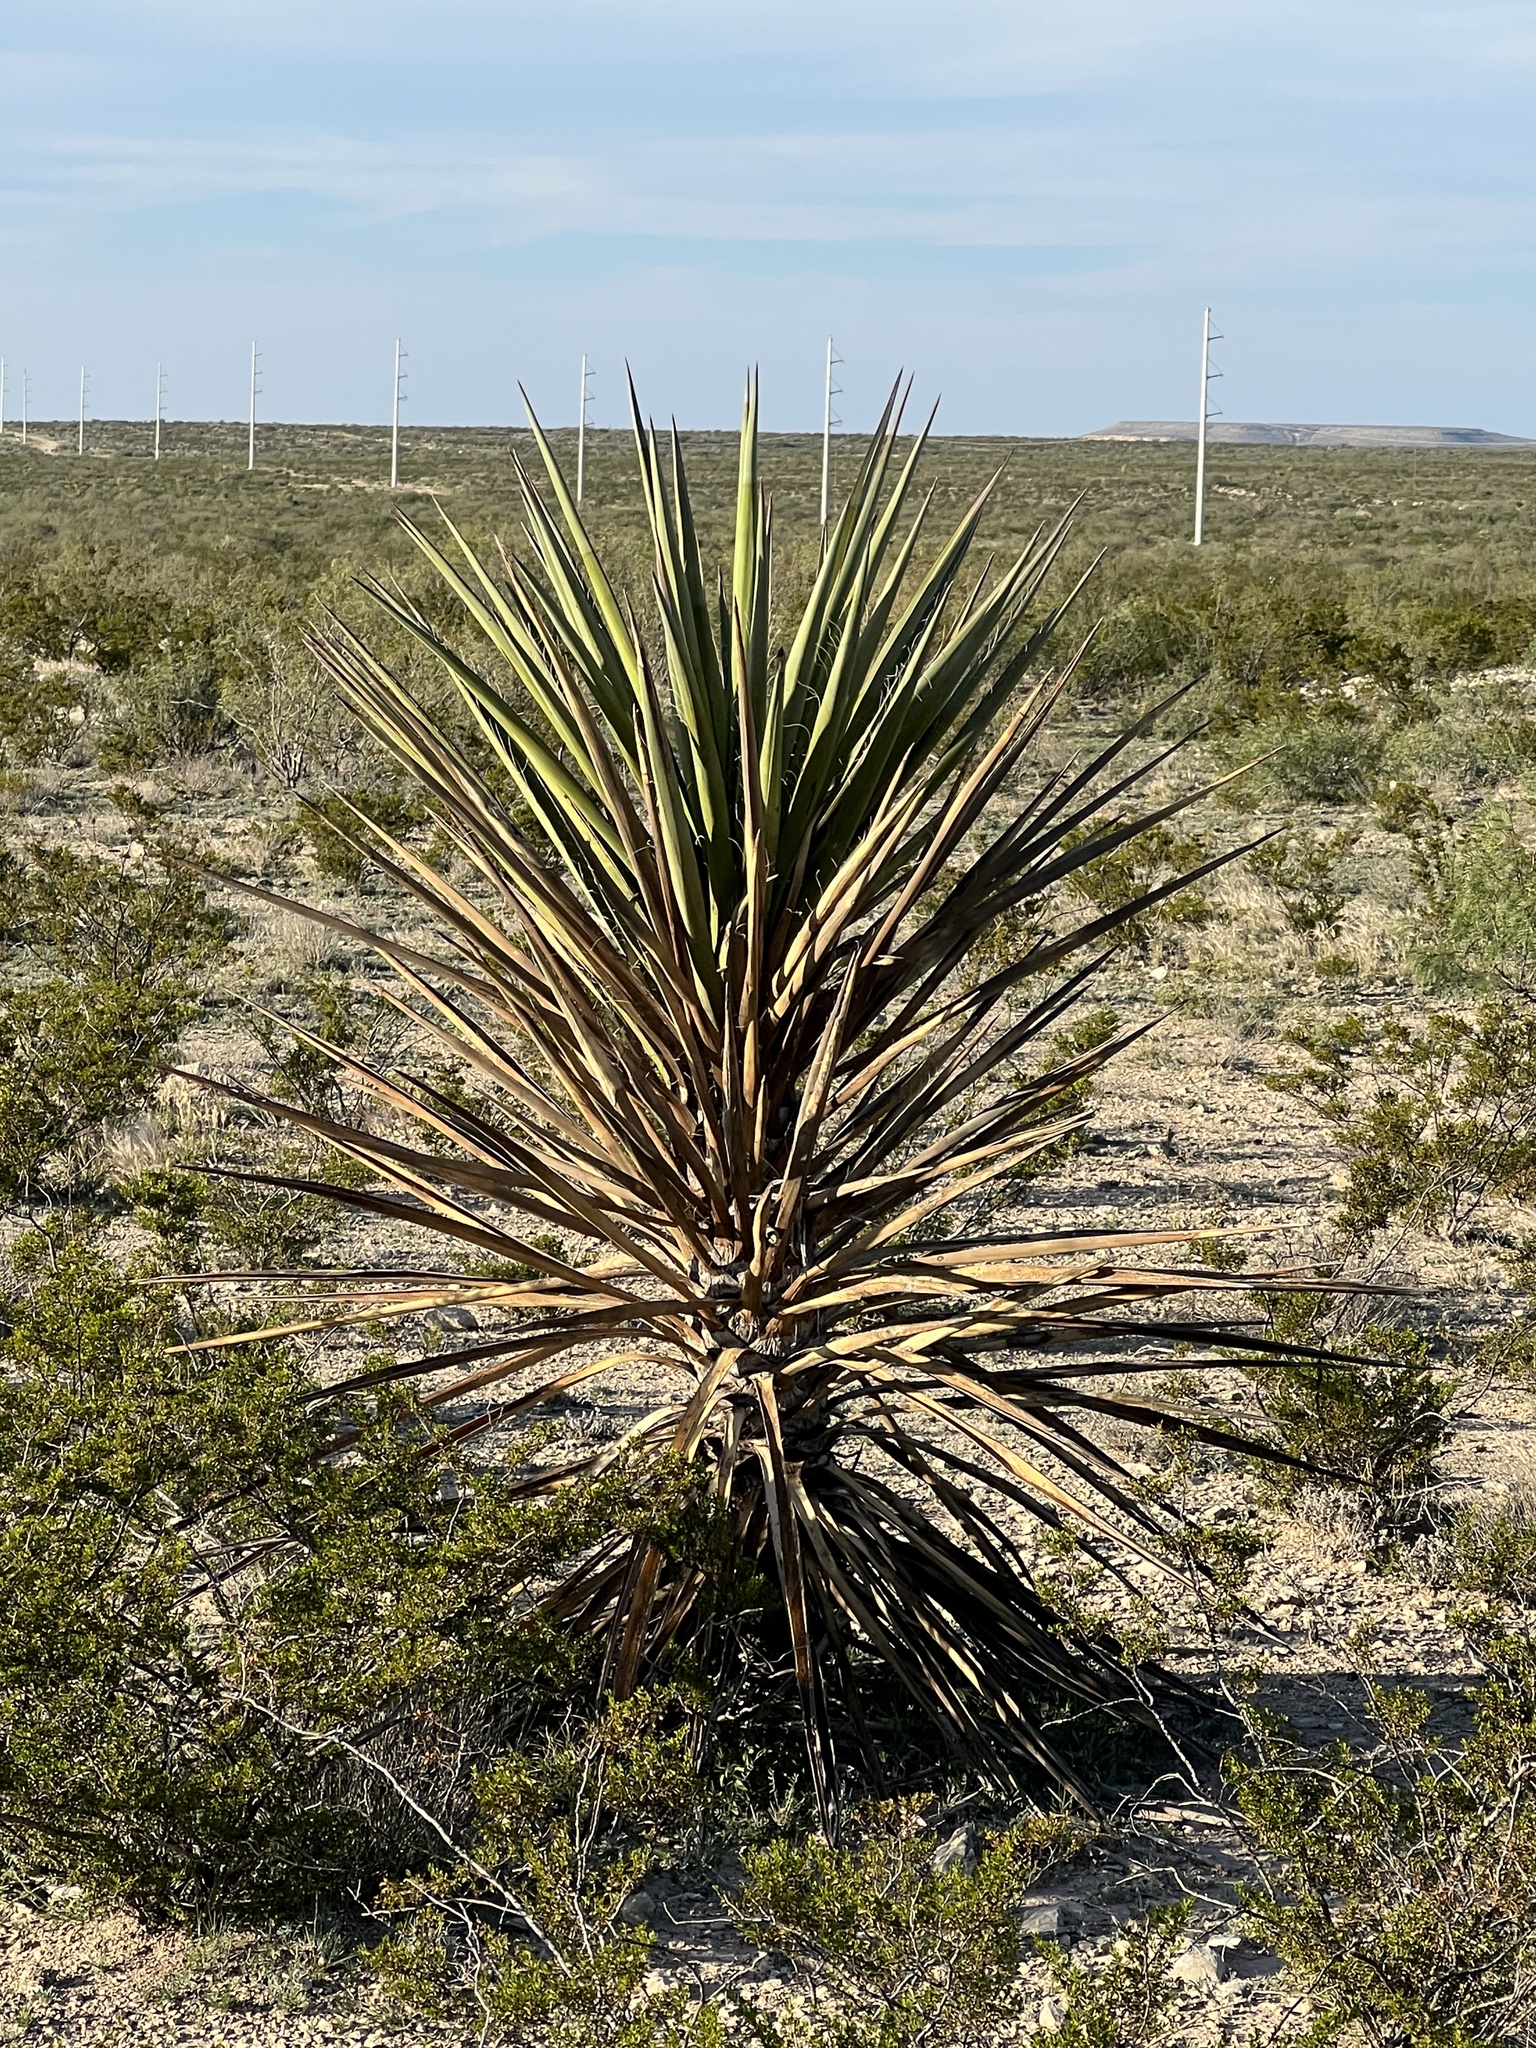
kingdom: Plantae
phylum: Tracheophyta
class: Liliopsida
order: Asparagales
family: Asparagaceae
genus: Yucca
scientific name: Yucca treculiana
